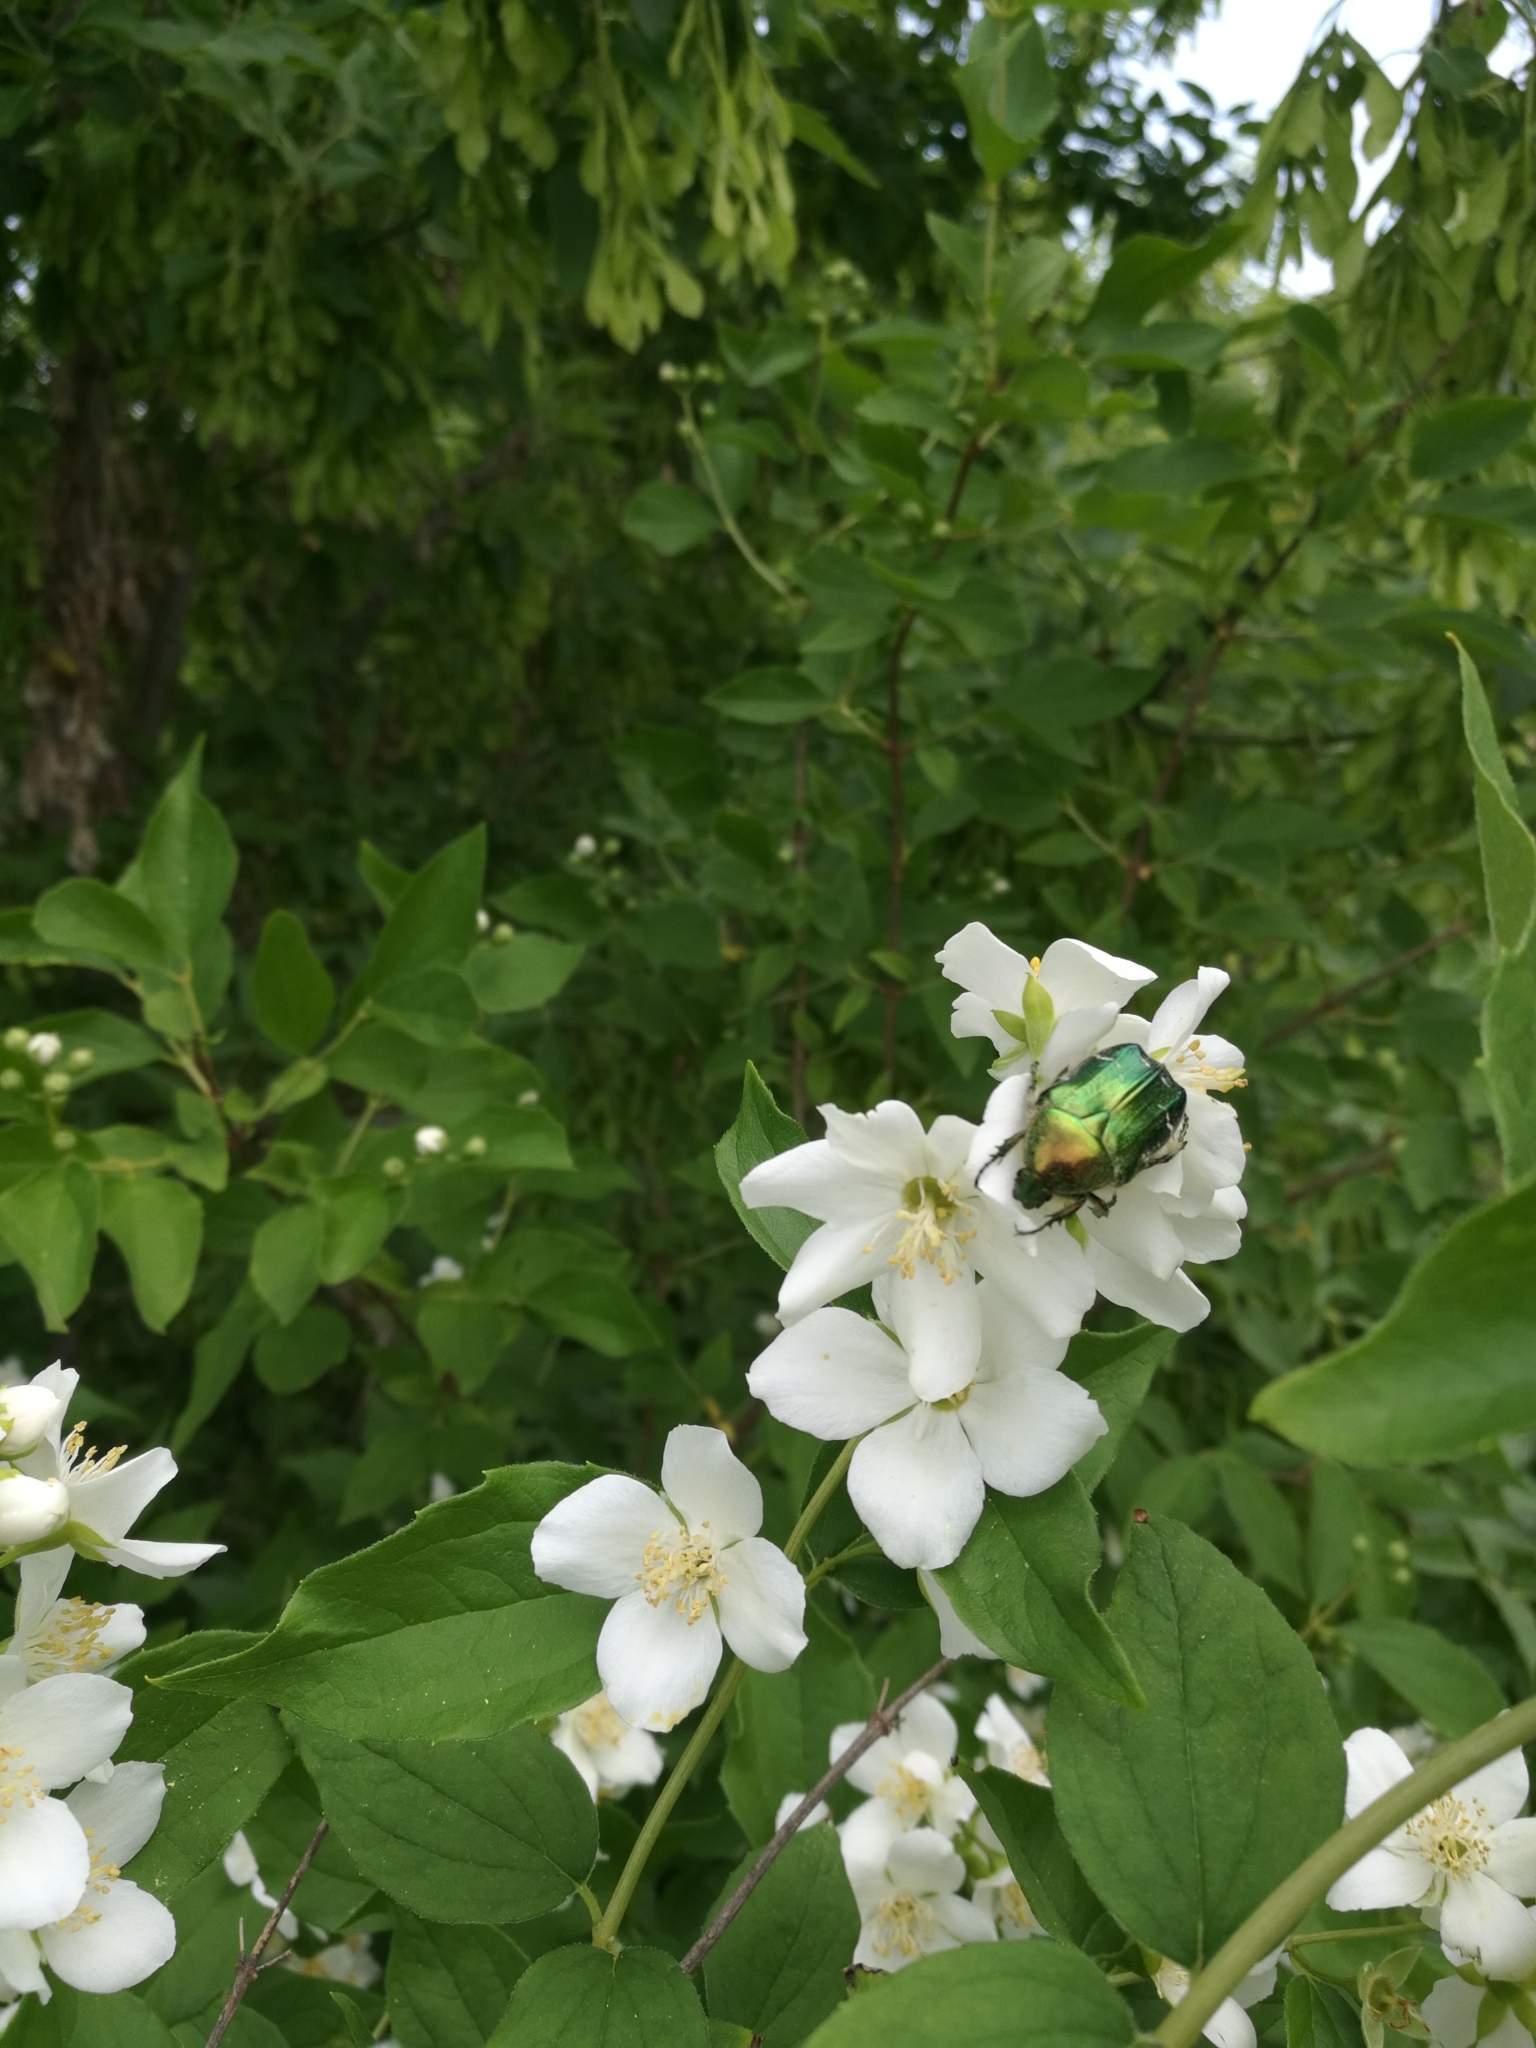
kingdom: Animalia
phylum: Arthropoda
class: Insecta
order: Coleoptera
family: Scarabaeidae
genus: Cetonia
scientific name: Cetonia aurata
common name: Rose chafer
